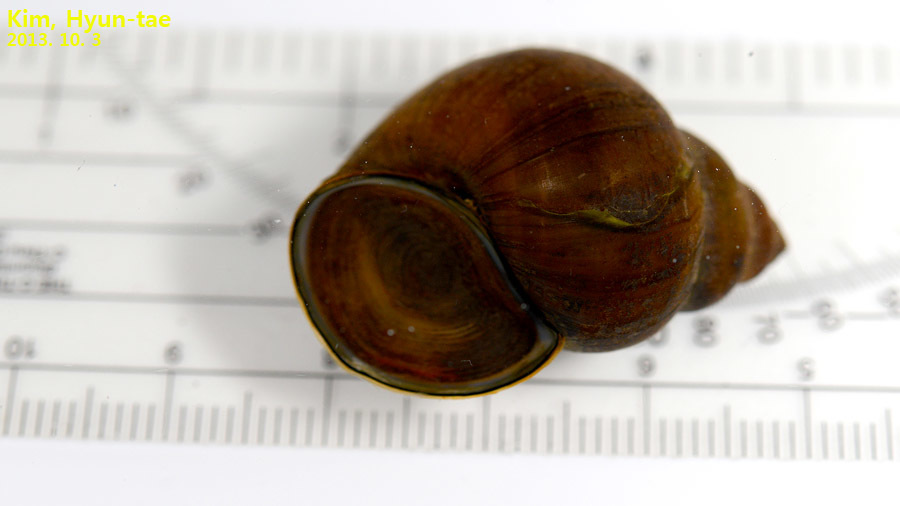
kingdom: Animalia
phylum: Mollusca
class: Gastropoda
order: Architaenioglossa
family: Viviparidae
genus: Cipangopaludina
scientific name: Cipangopaludina chinensis
